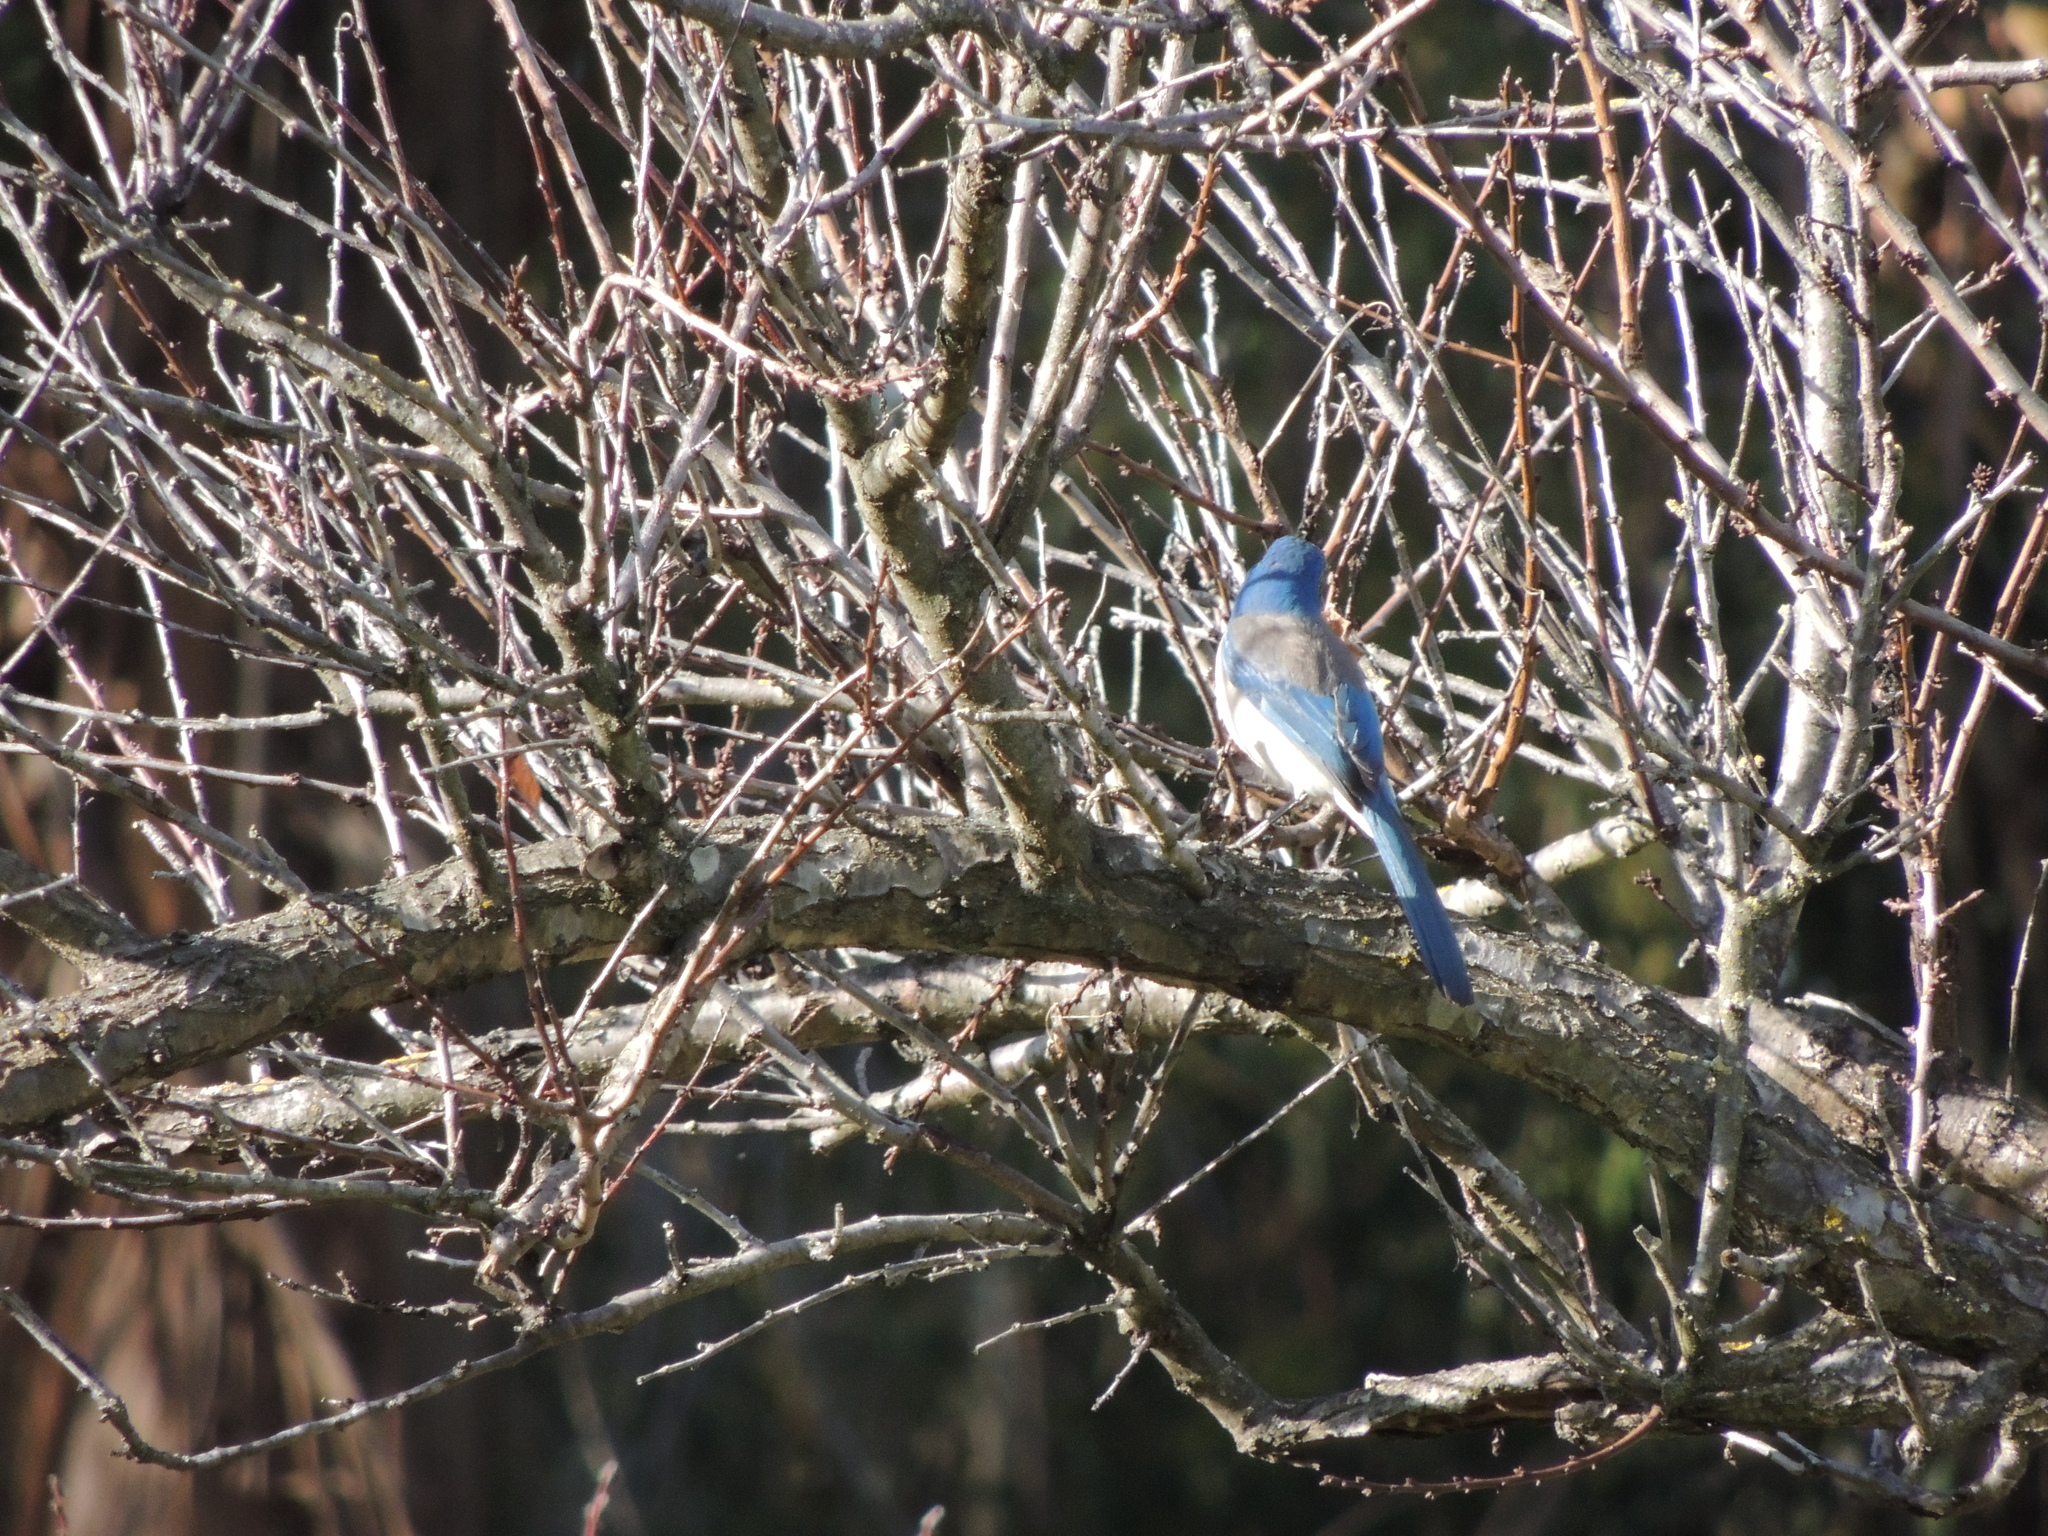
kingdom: Animalia
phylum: Chordata
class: Aves
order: Passeriformes
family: Corvidae
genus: Aphelocoma
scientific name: Aphelocoma californica
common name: California scrub-jay
